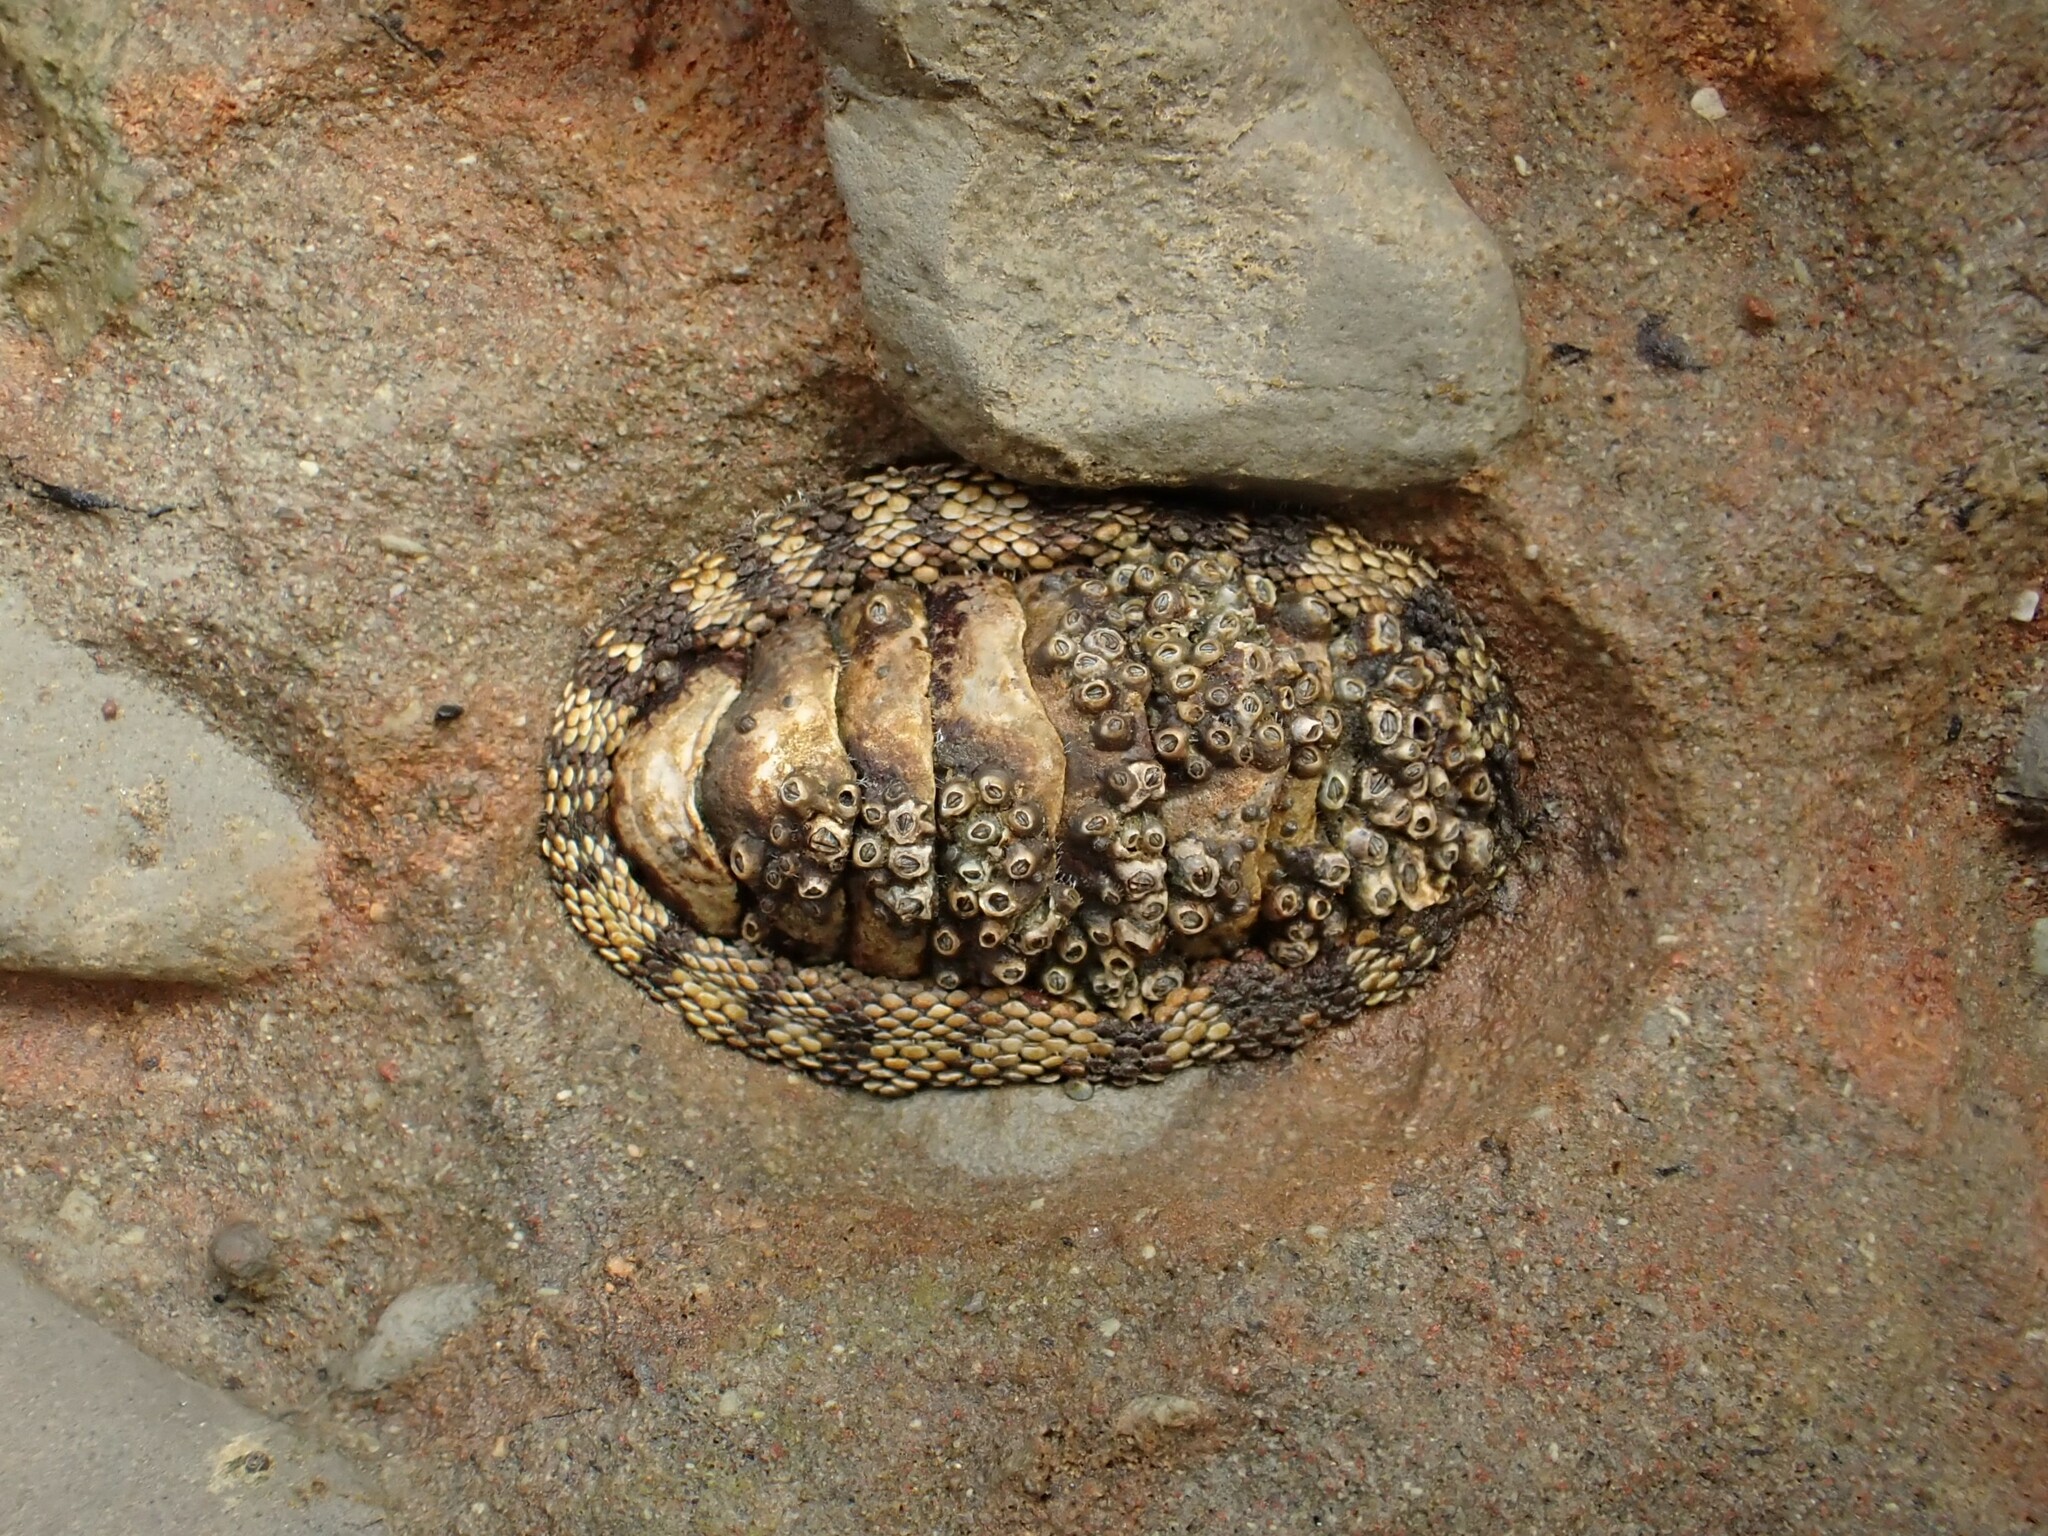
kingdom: Animalia
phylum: Mollusca
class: Polyplacophora
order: Chitonida
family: Chitonidae
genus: Sypharochiton
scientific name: Sypharochiton pelliserpentis
